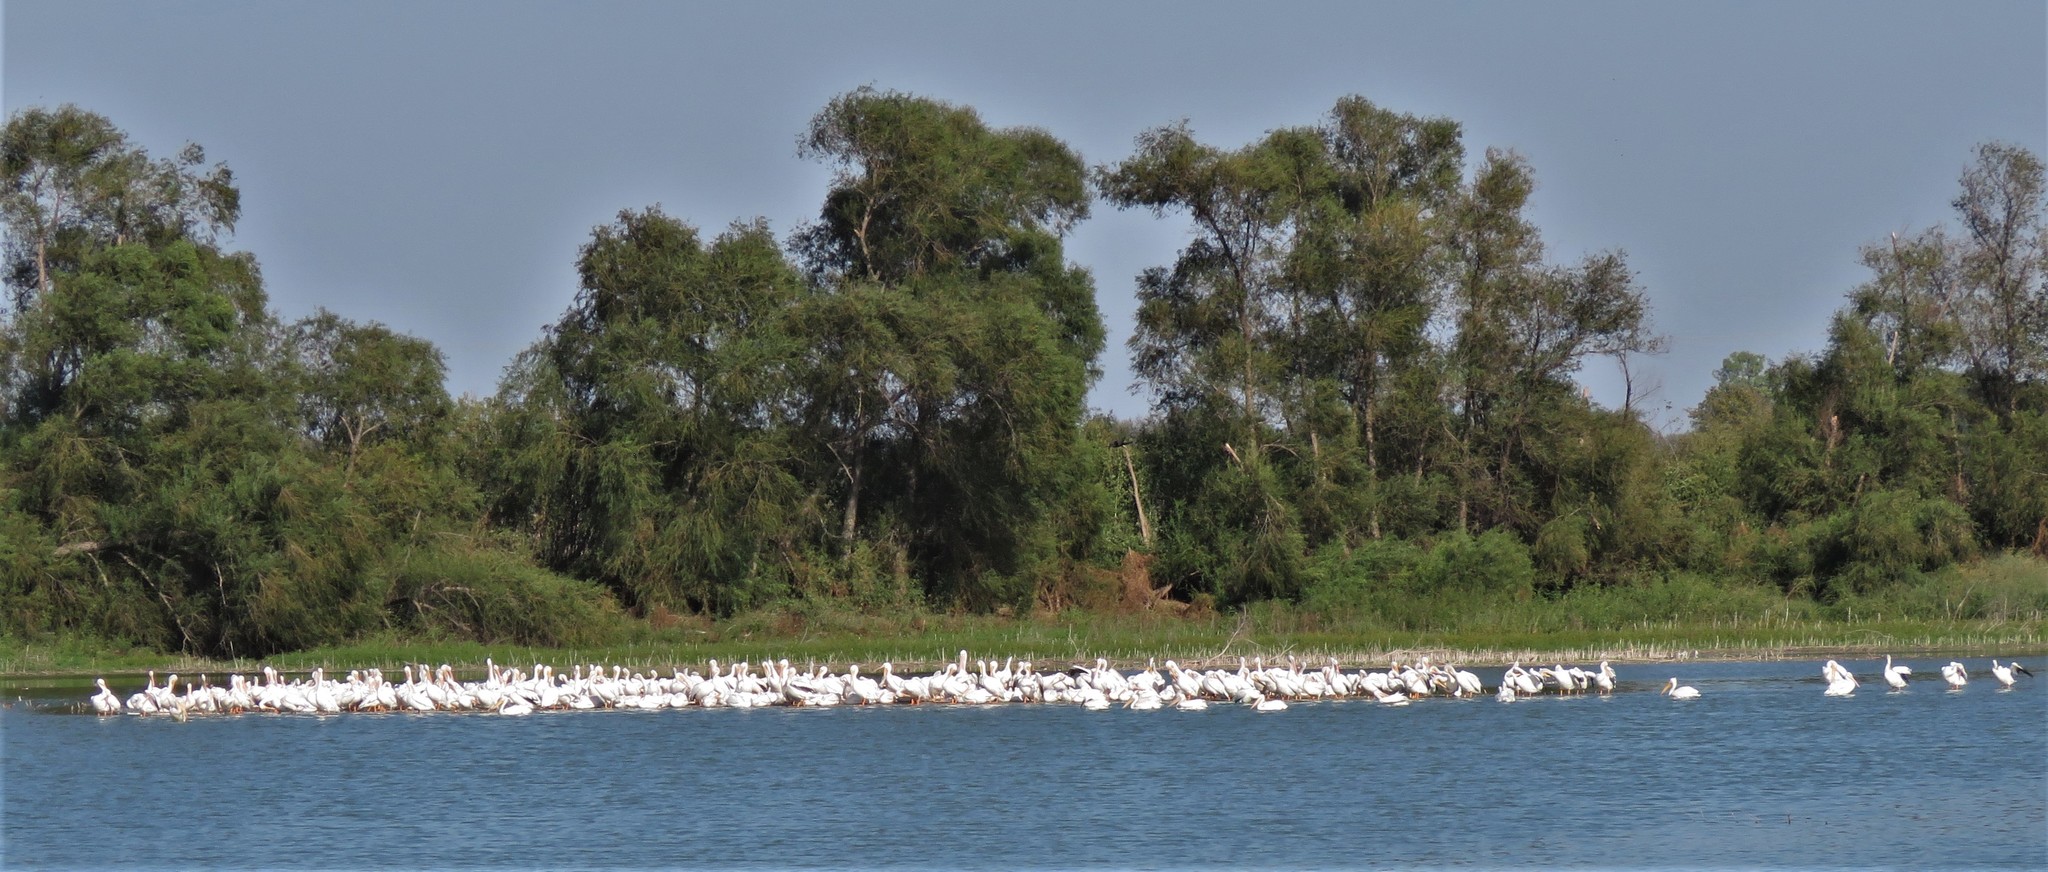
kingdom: Animalia
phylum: Chordata
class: Aves
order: Pelecaniformes
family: Pelecanidae
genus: Pelecanus
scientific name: Pelecanus erythrorhynchos
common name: American white pelican
